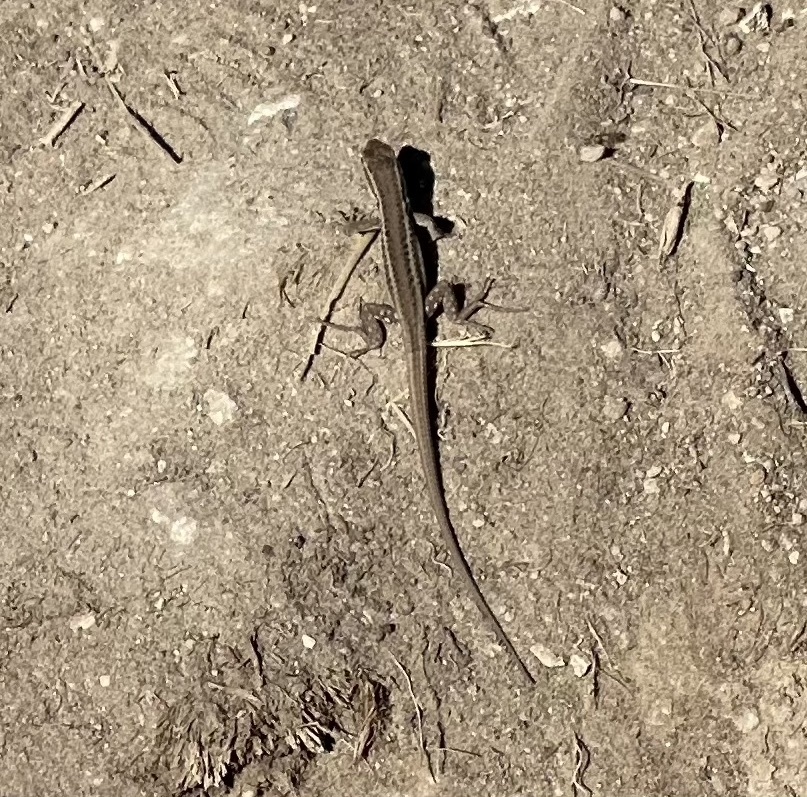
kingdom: Animalia
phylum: Chordata
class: Squamata
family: Lacertidae
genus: Ophisops
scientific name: Ophisops elegans
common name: Snake-eyed lizard
